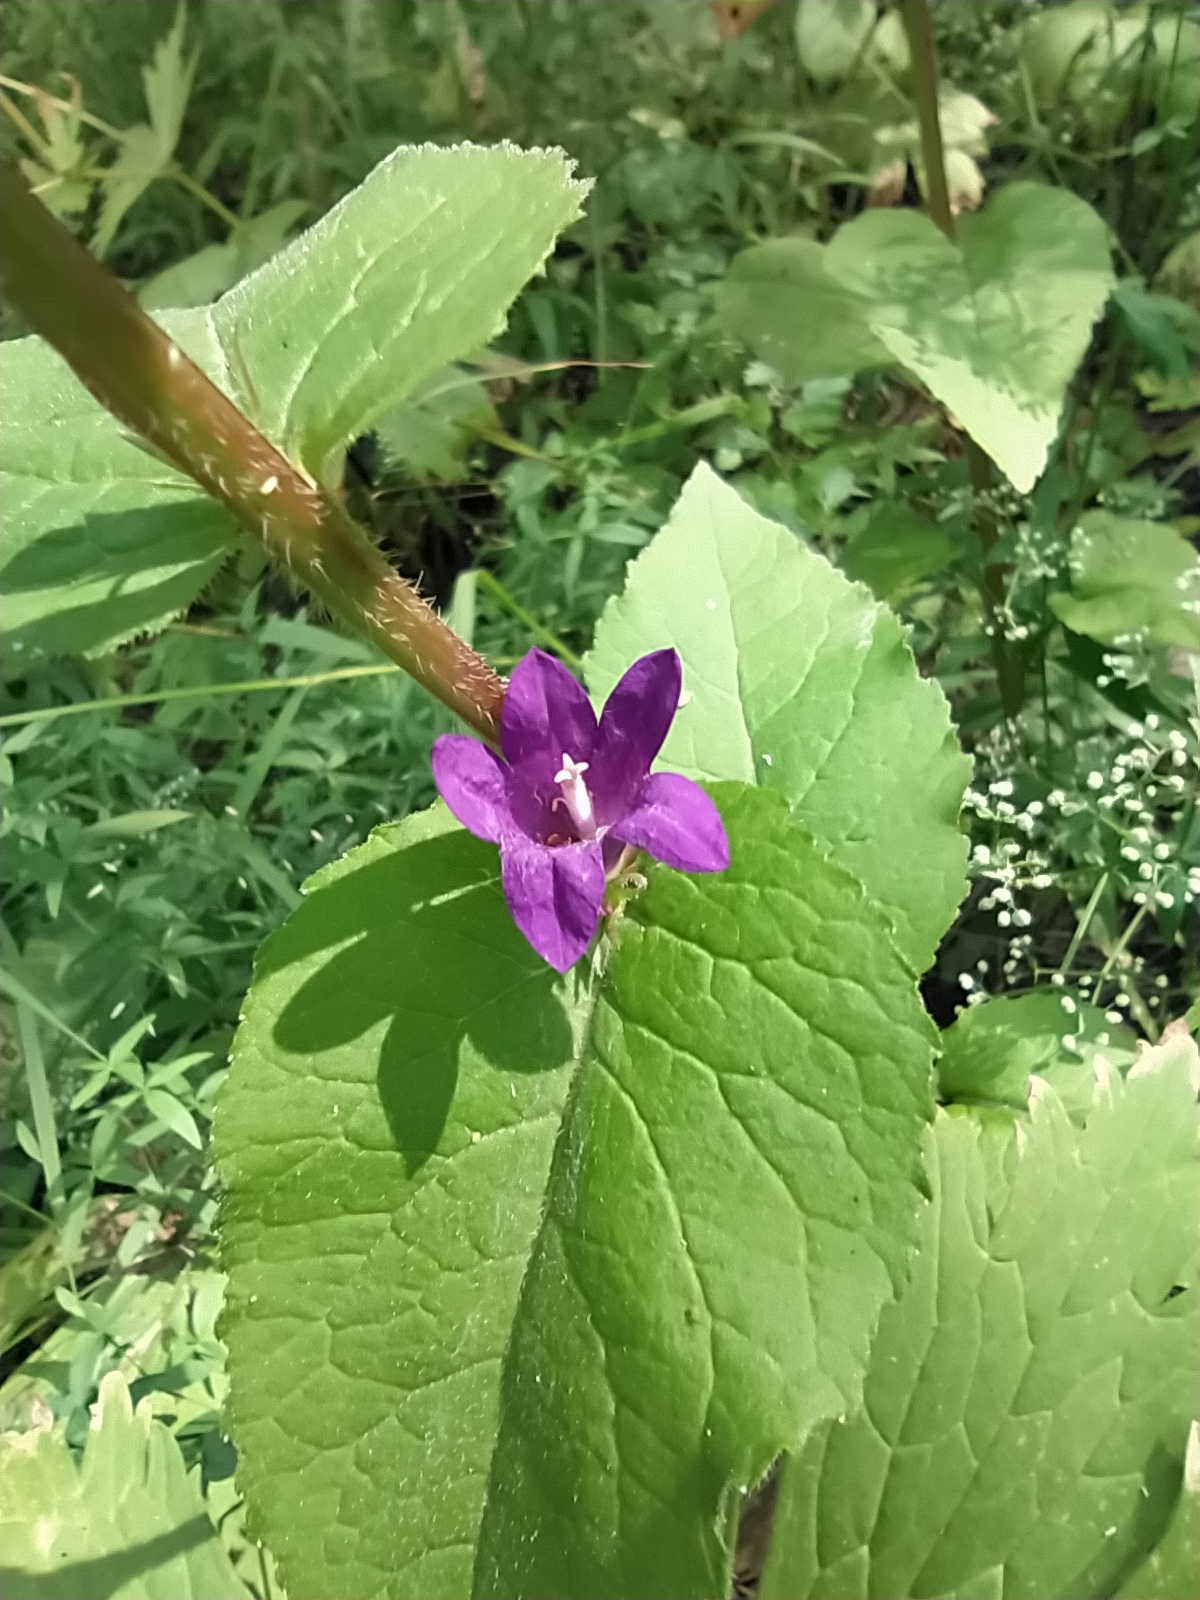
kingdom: Plantae
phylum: Tracheophyta
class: Magnoliopsida
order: Asterales
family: Campanulaceae
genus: Campanula
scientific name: Campanula glomerata
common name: Clustered bellflower
